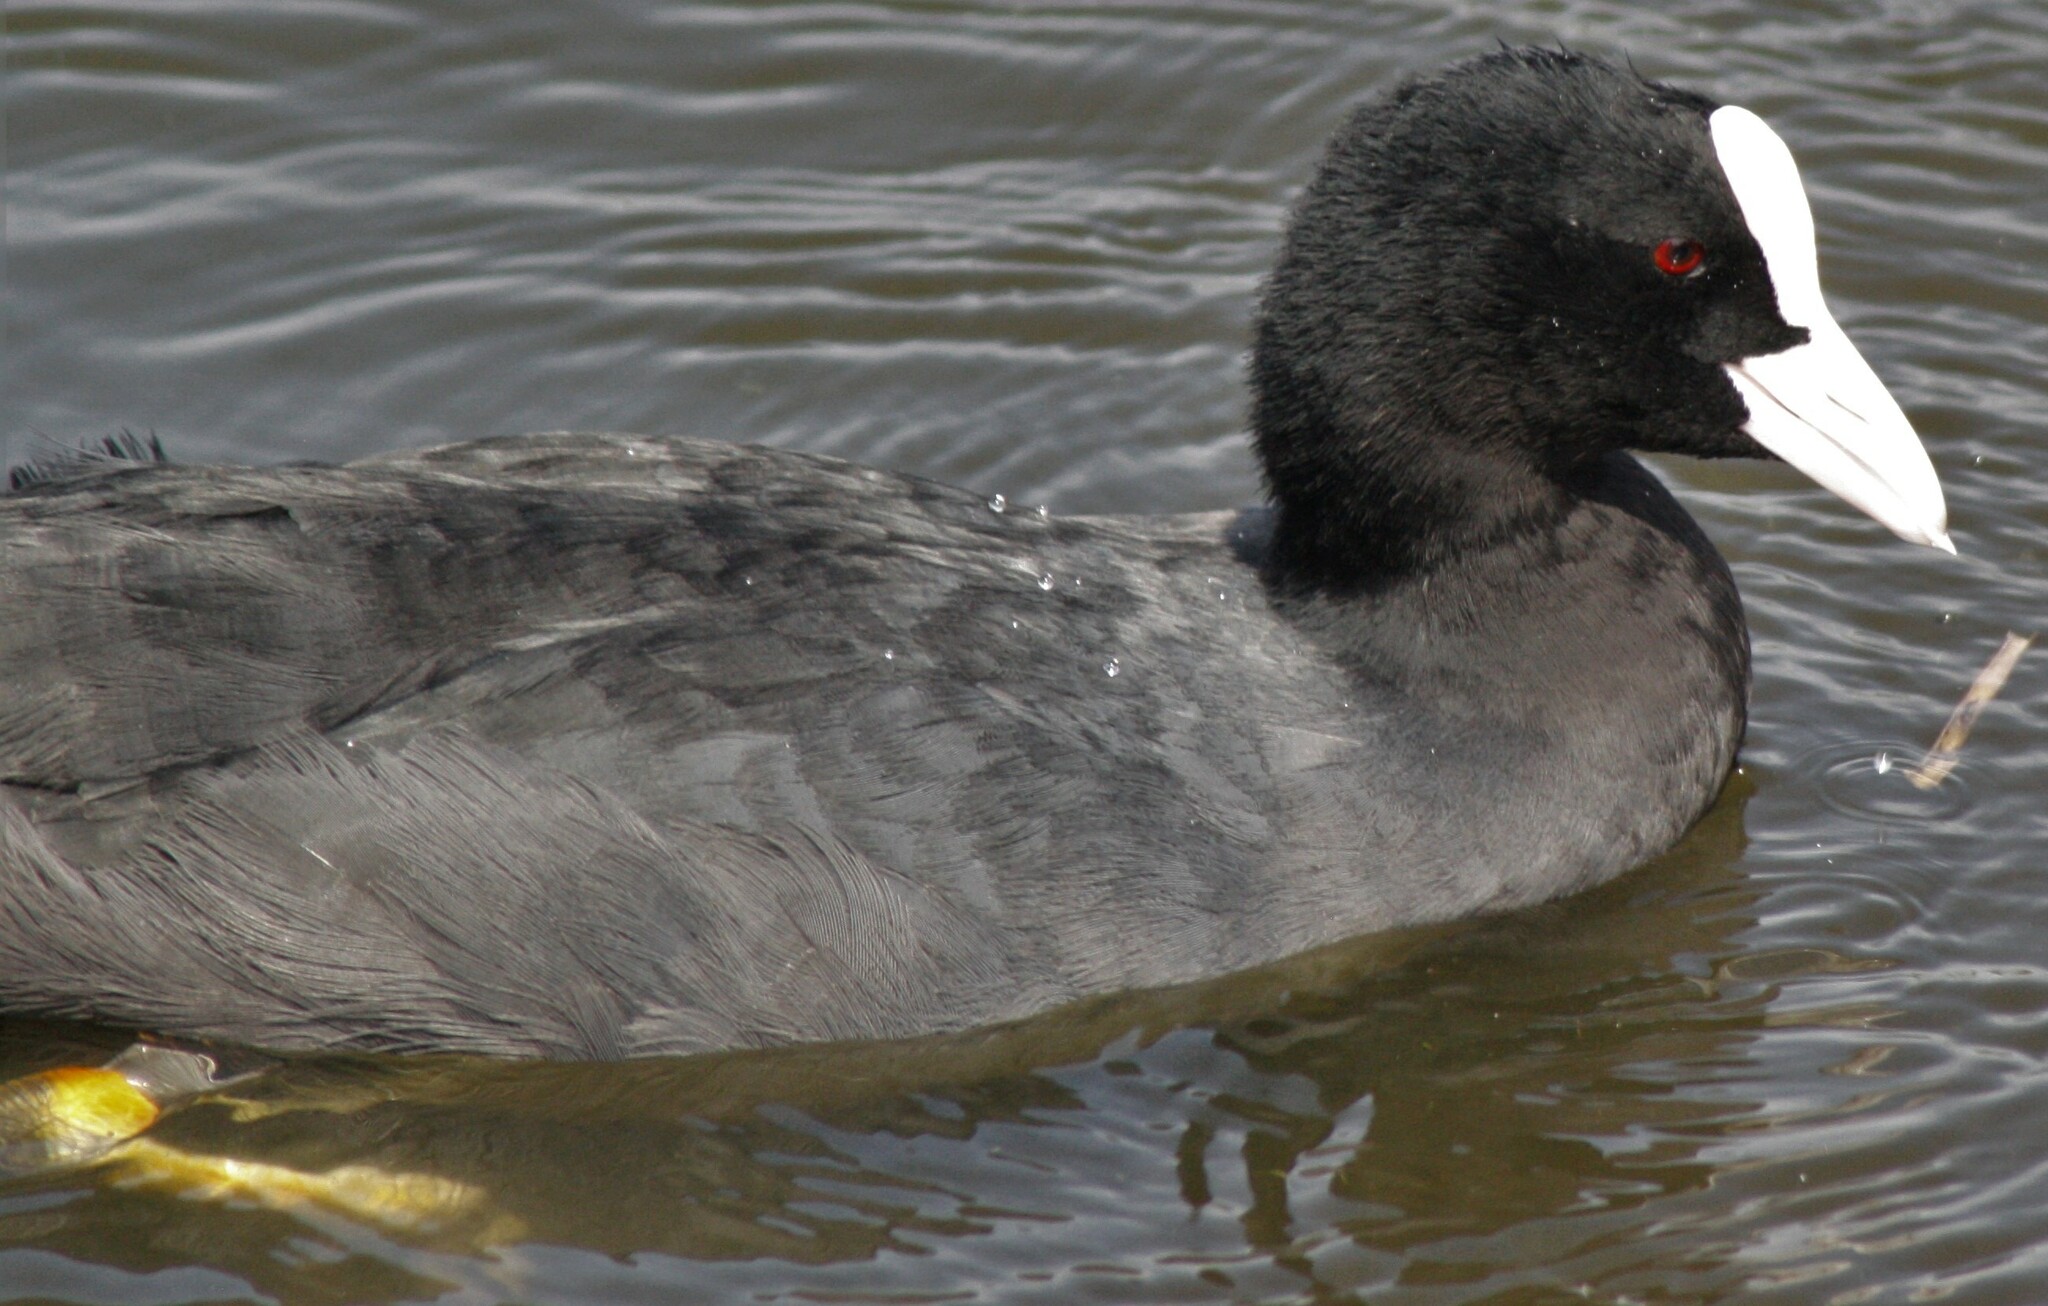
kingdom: Animalia
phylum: Chordata
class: Aves
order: Gruiformes
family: Rallidae
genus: Fulica
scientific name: Fulica atra
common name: Eurasian coot
